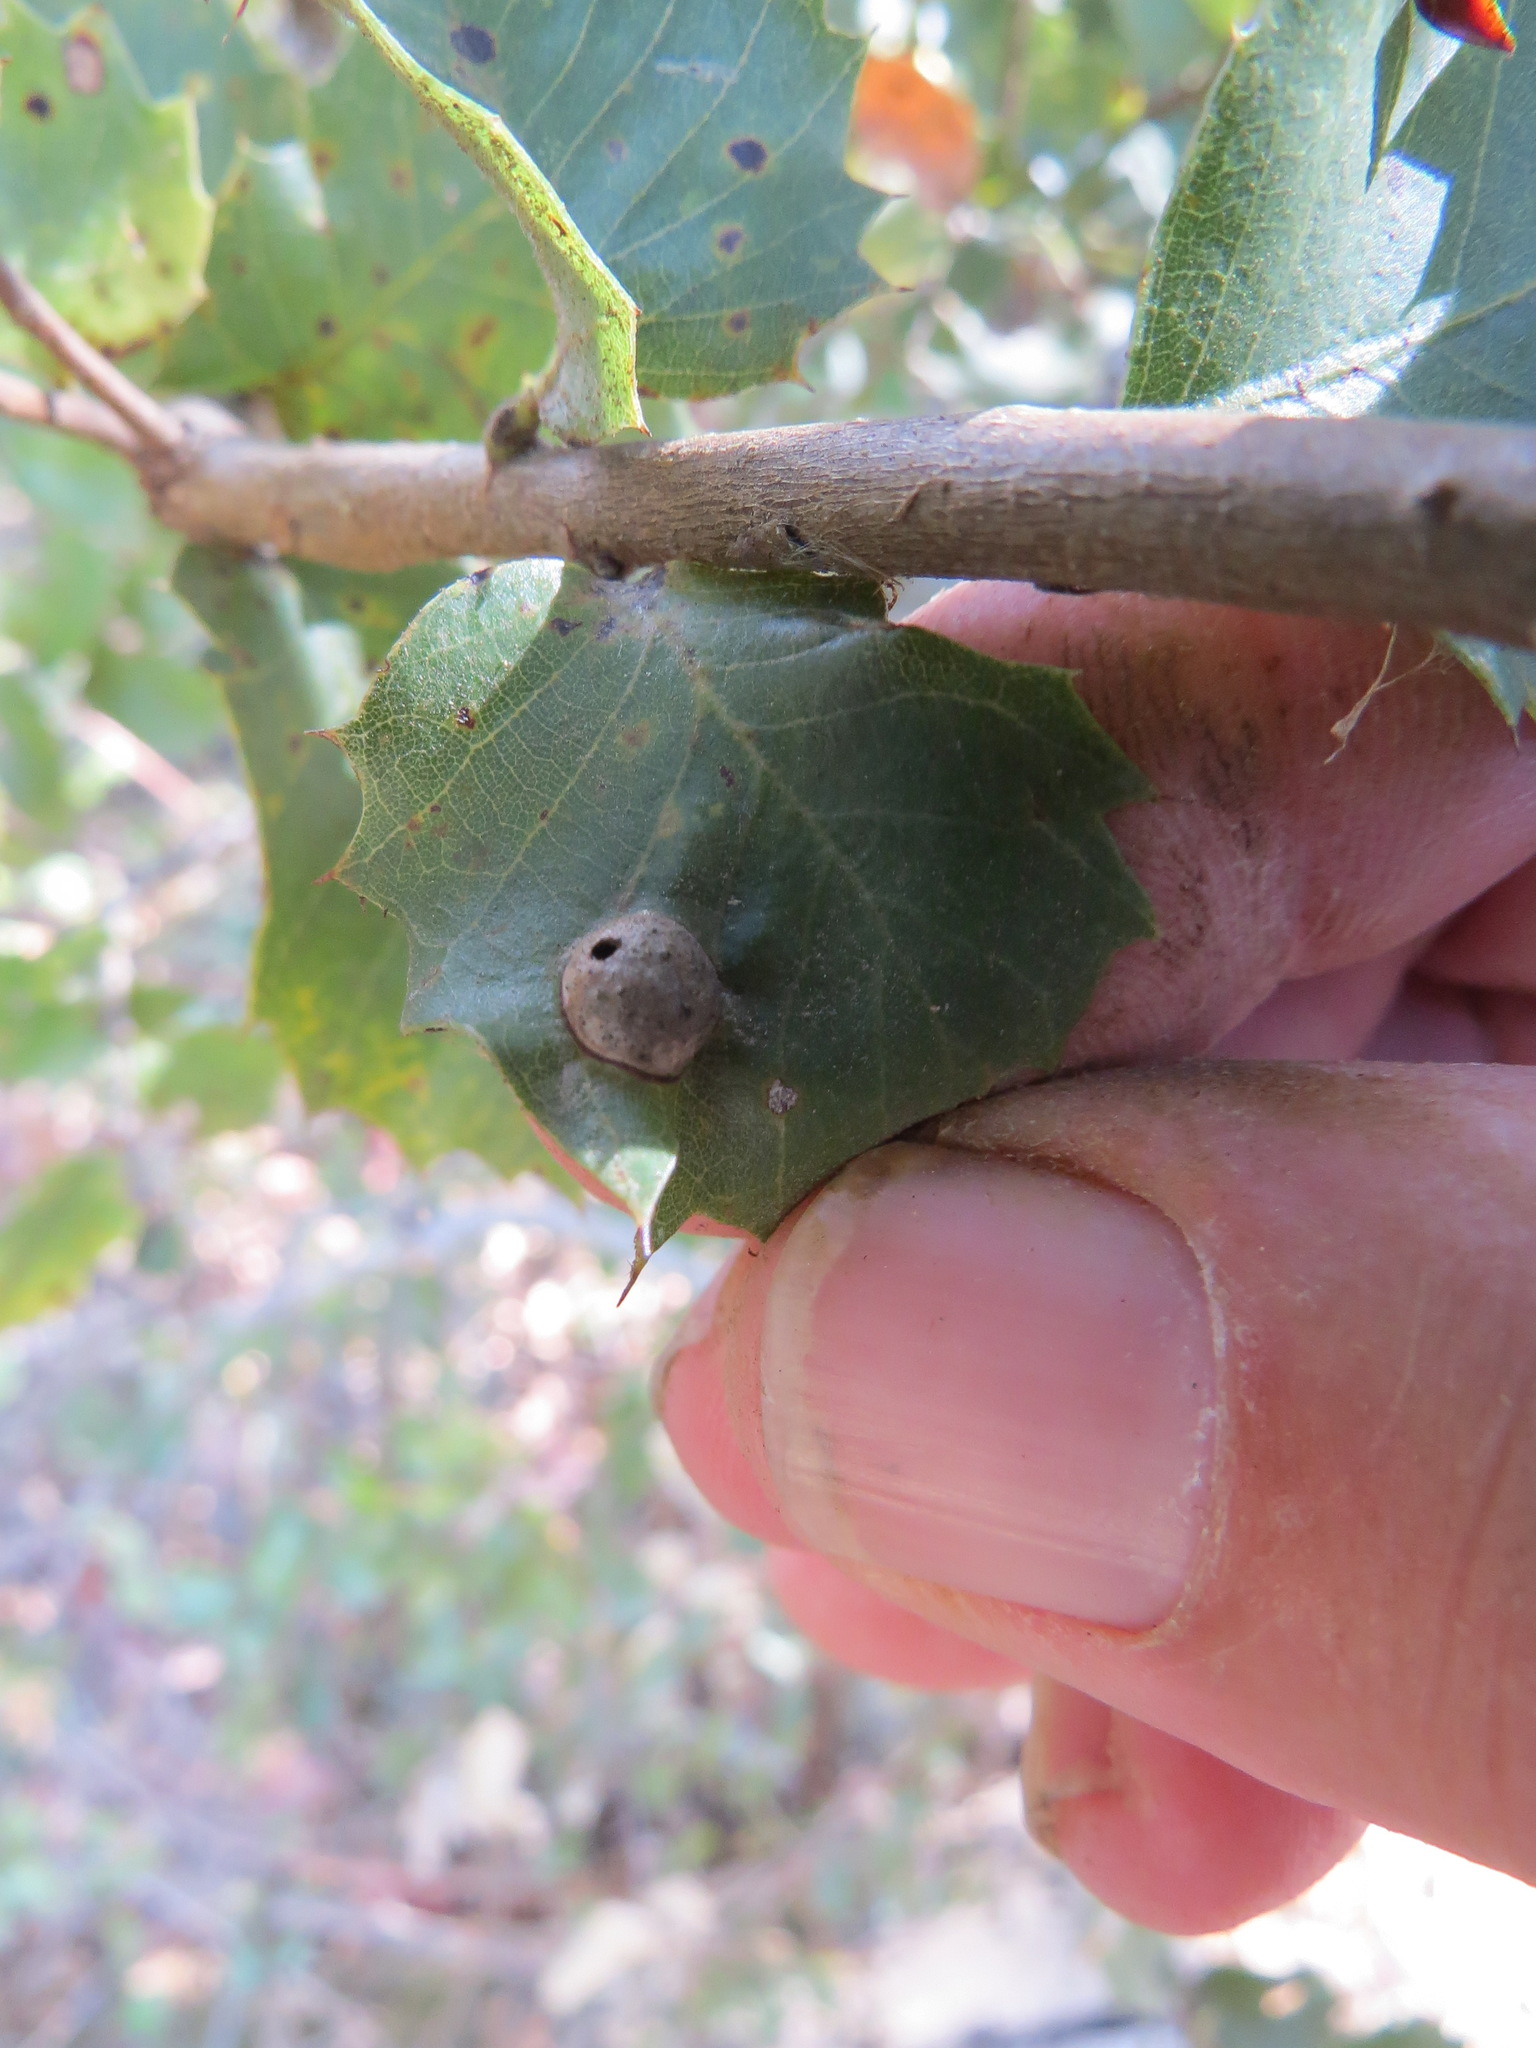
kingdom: Animalia
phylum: Arthropoda
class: Insecta
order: Hymenoptera
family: Cynipidae
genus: Heteroecus
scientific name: Heteroecus
